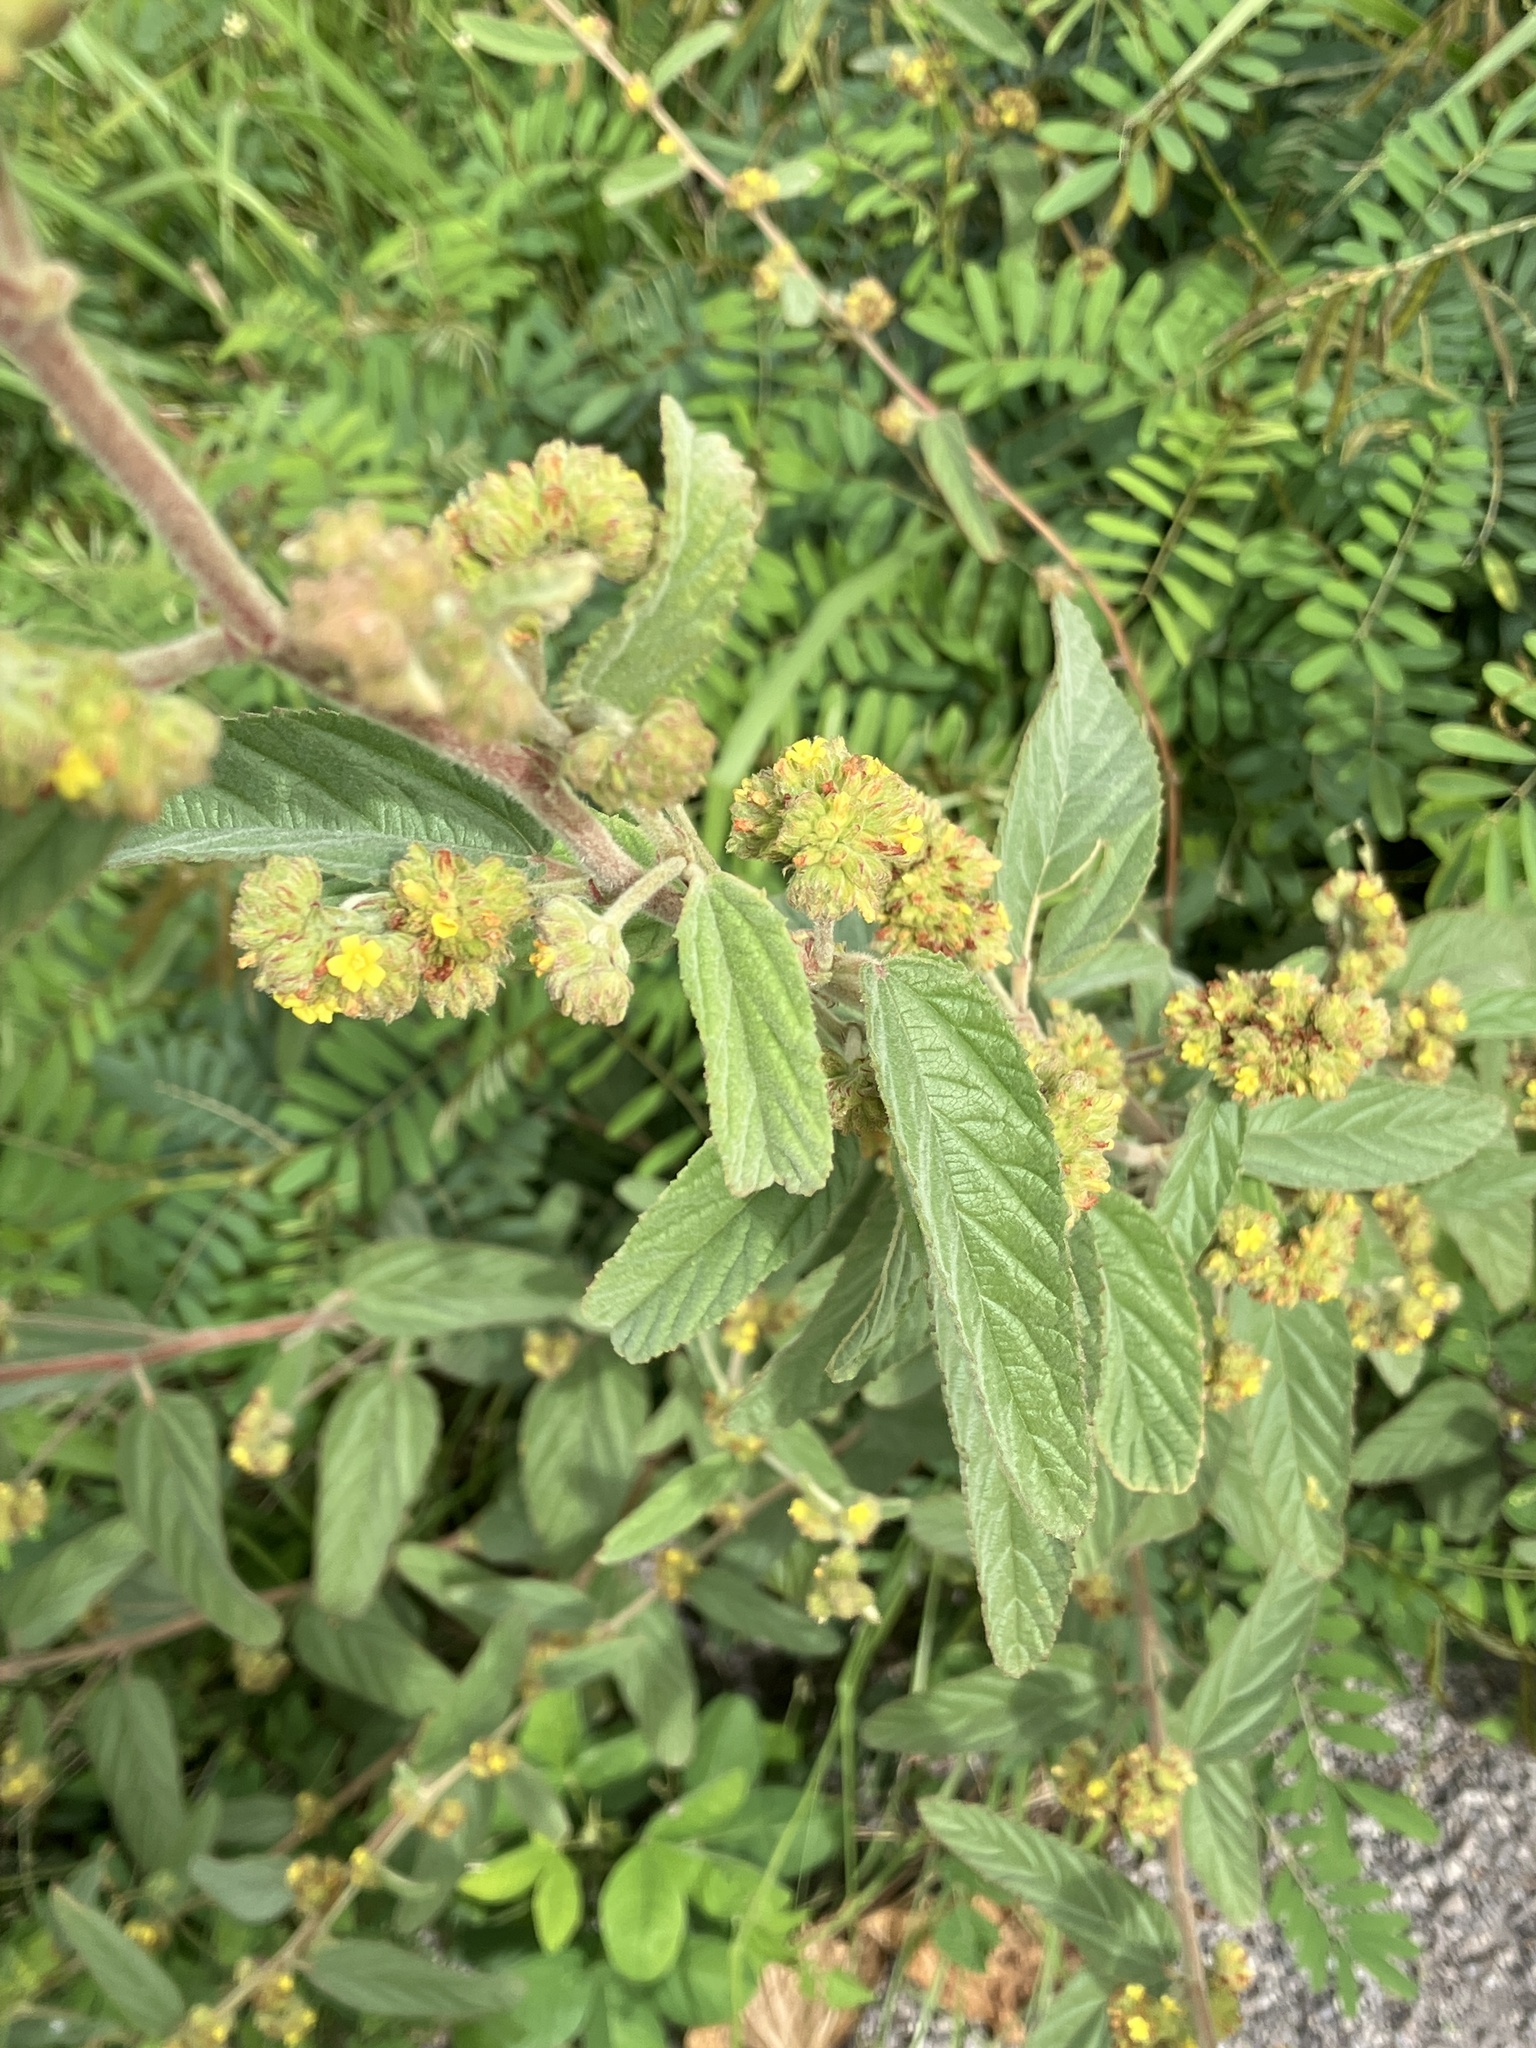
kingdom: Plantae
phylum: Tracheophyta
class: Magnoliopsida
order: Malvales
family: Malvaceae
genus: Waltheria
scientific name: Waltheria indica
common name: Leather-coat
